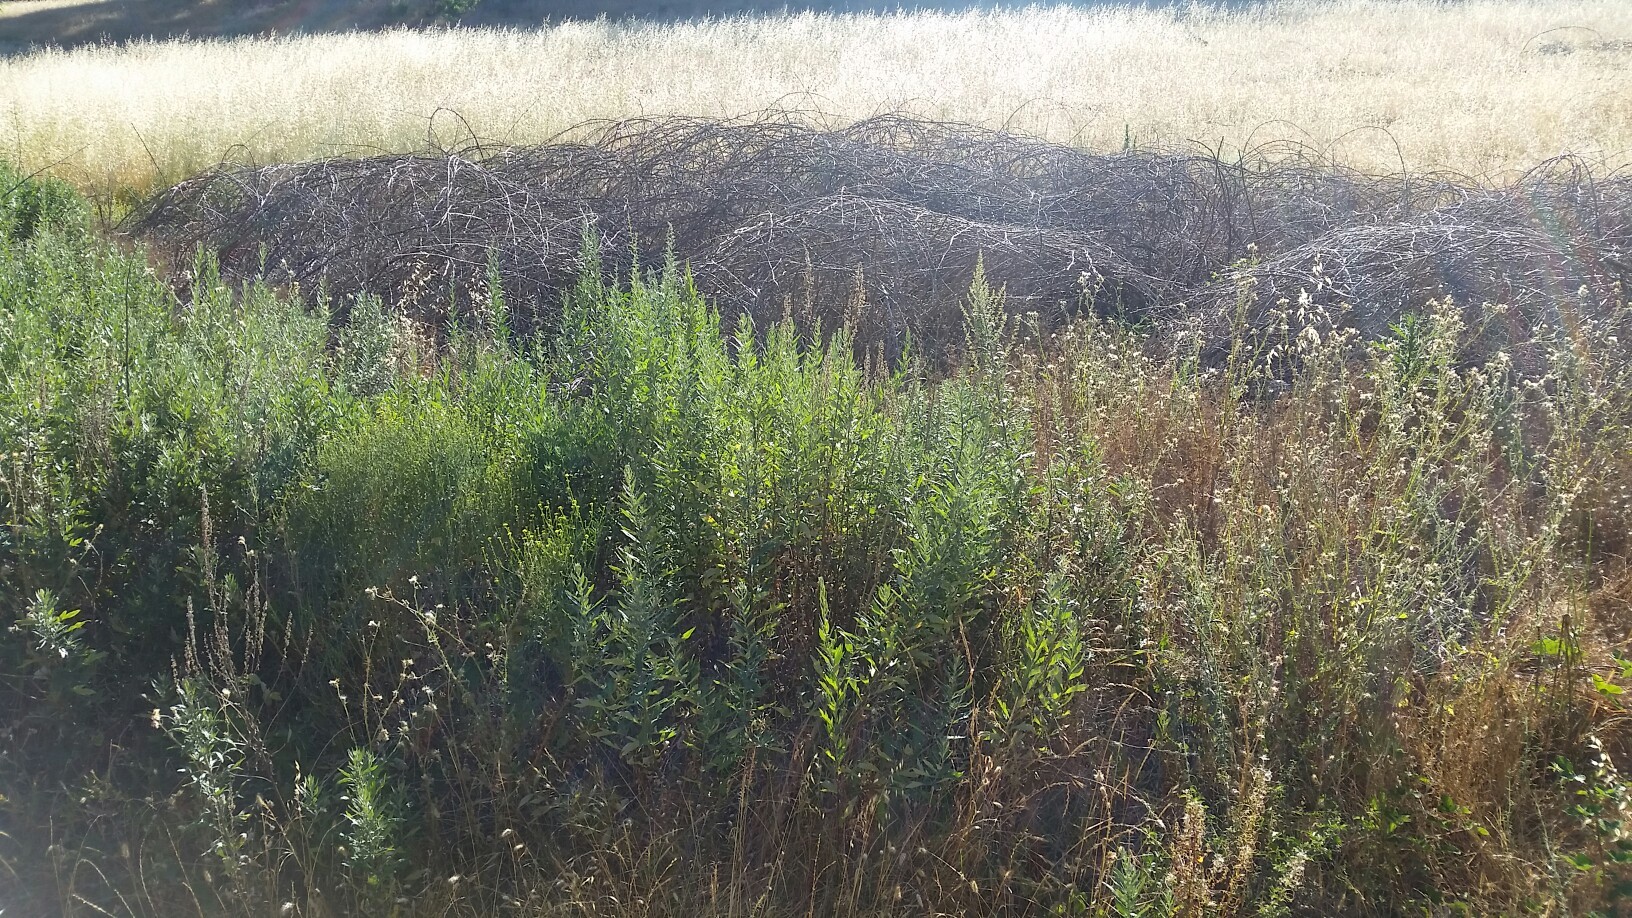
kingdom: Plantae
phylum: Tracheophyta
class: Magnoliopsida
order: Asterales
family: Asteraceae
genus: Artemisia
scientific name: Artemisia douglasiana
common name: Northwest mugwort
